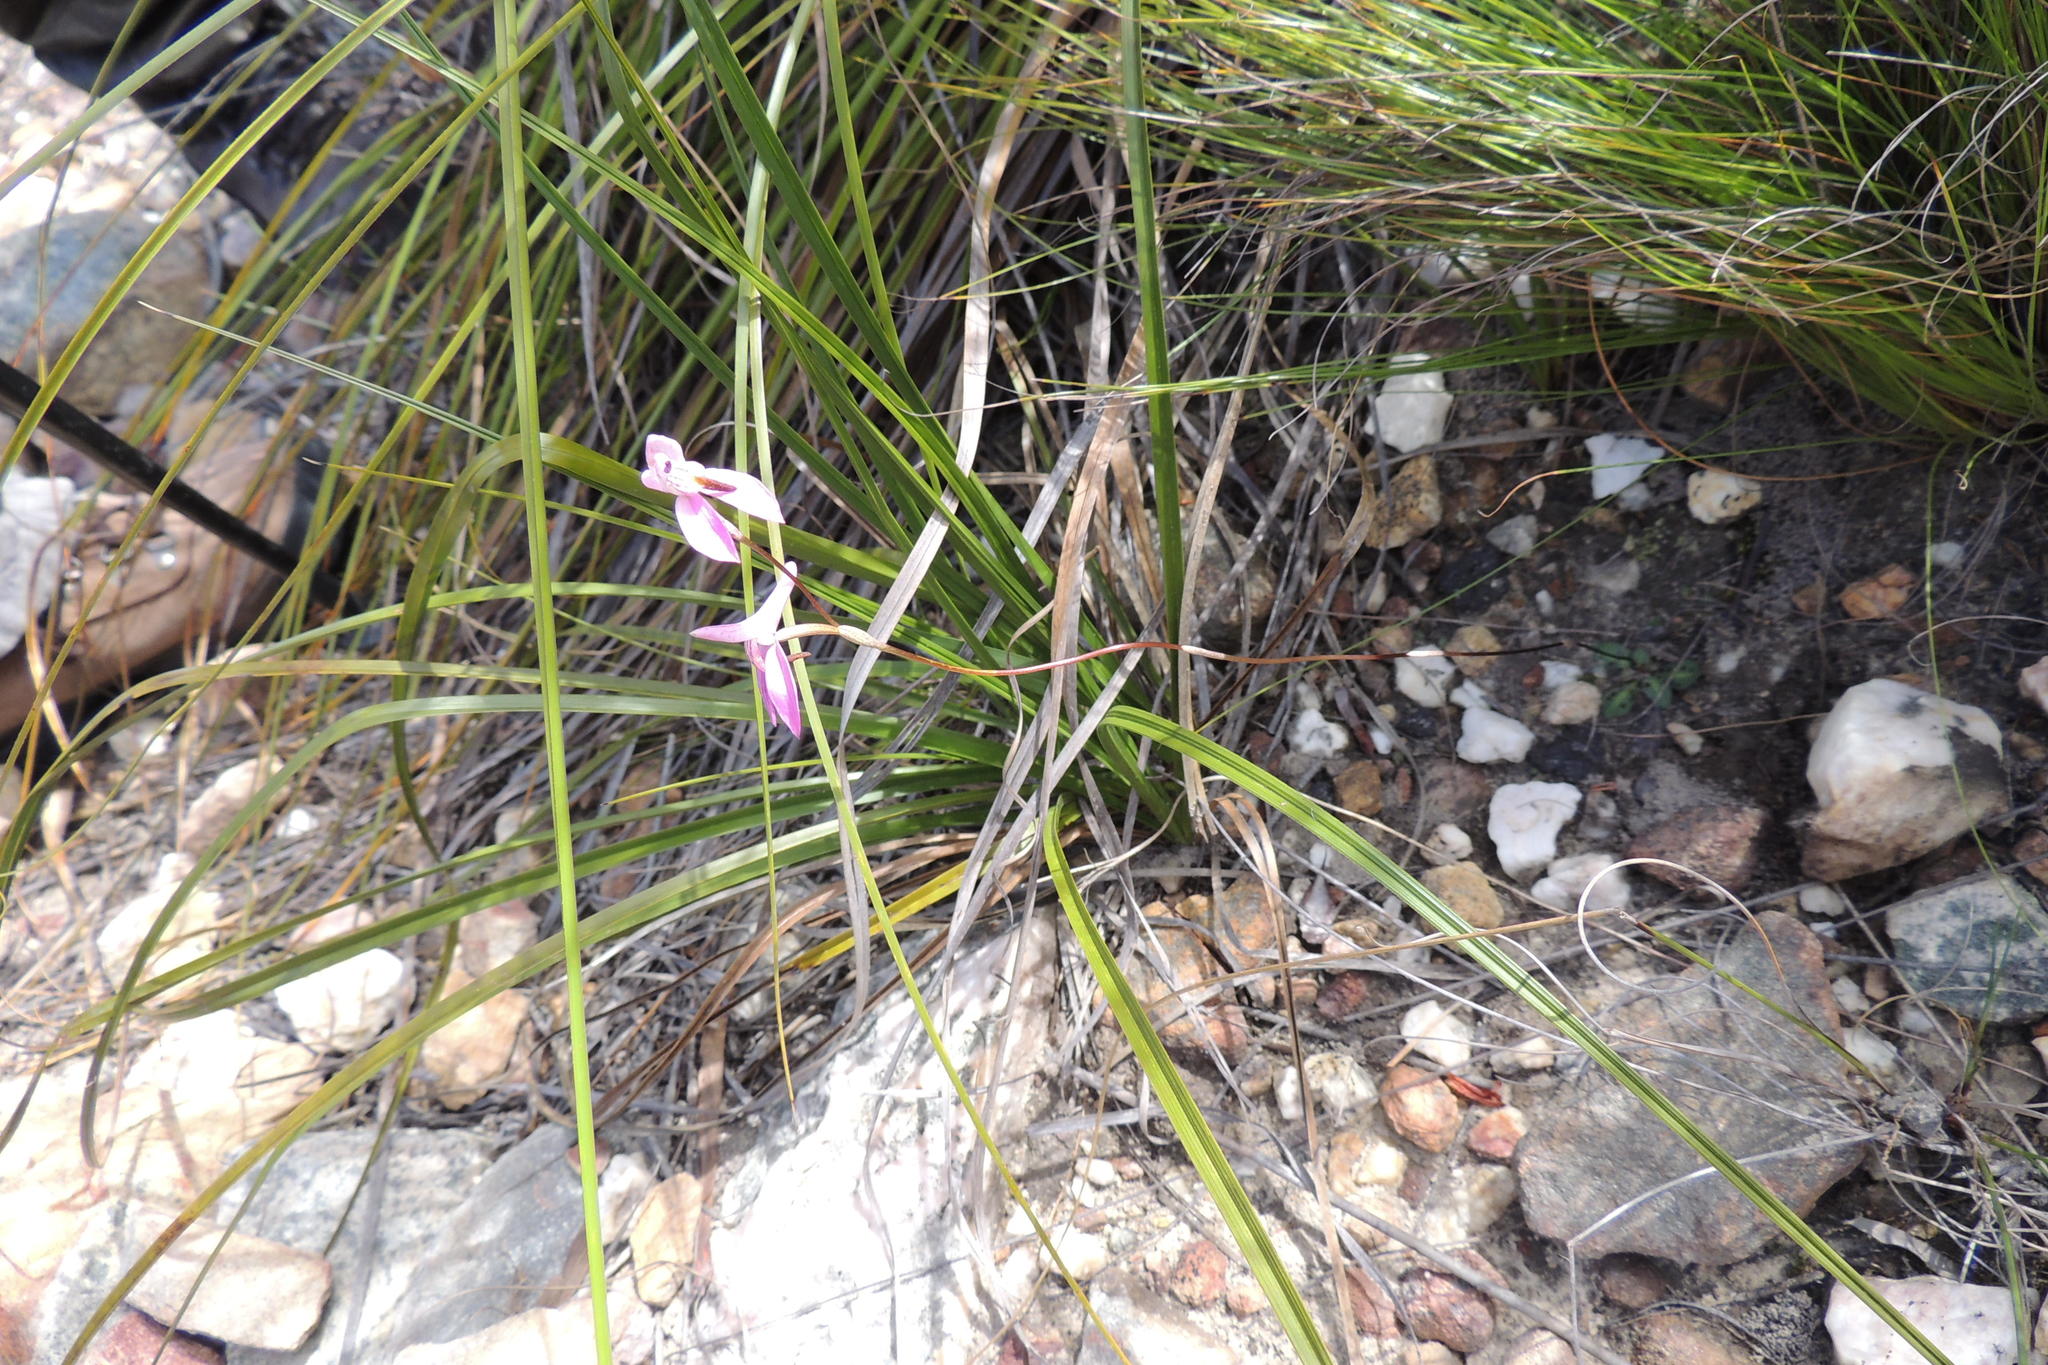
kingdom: Plantae
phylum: Tracheophyta
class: Liliopsida
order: Asparagales
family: Orchidaceae
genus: Disa
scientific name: Disa bifida
